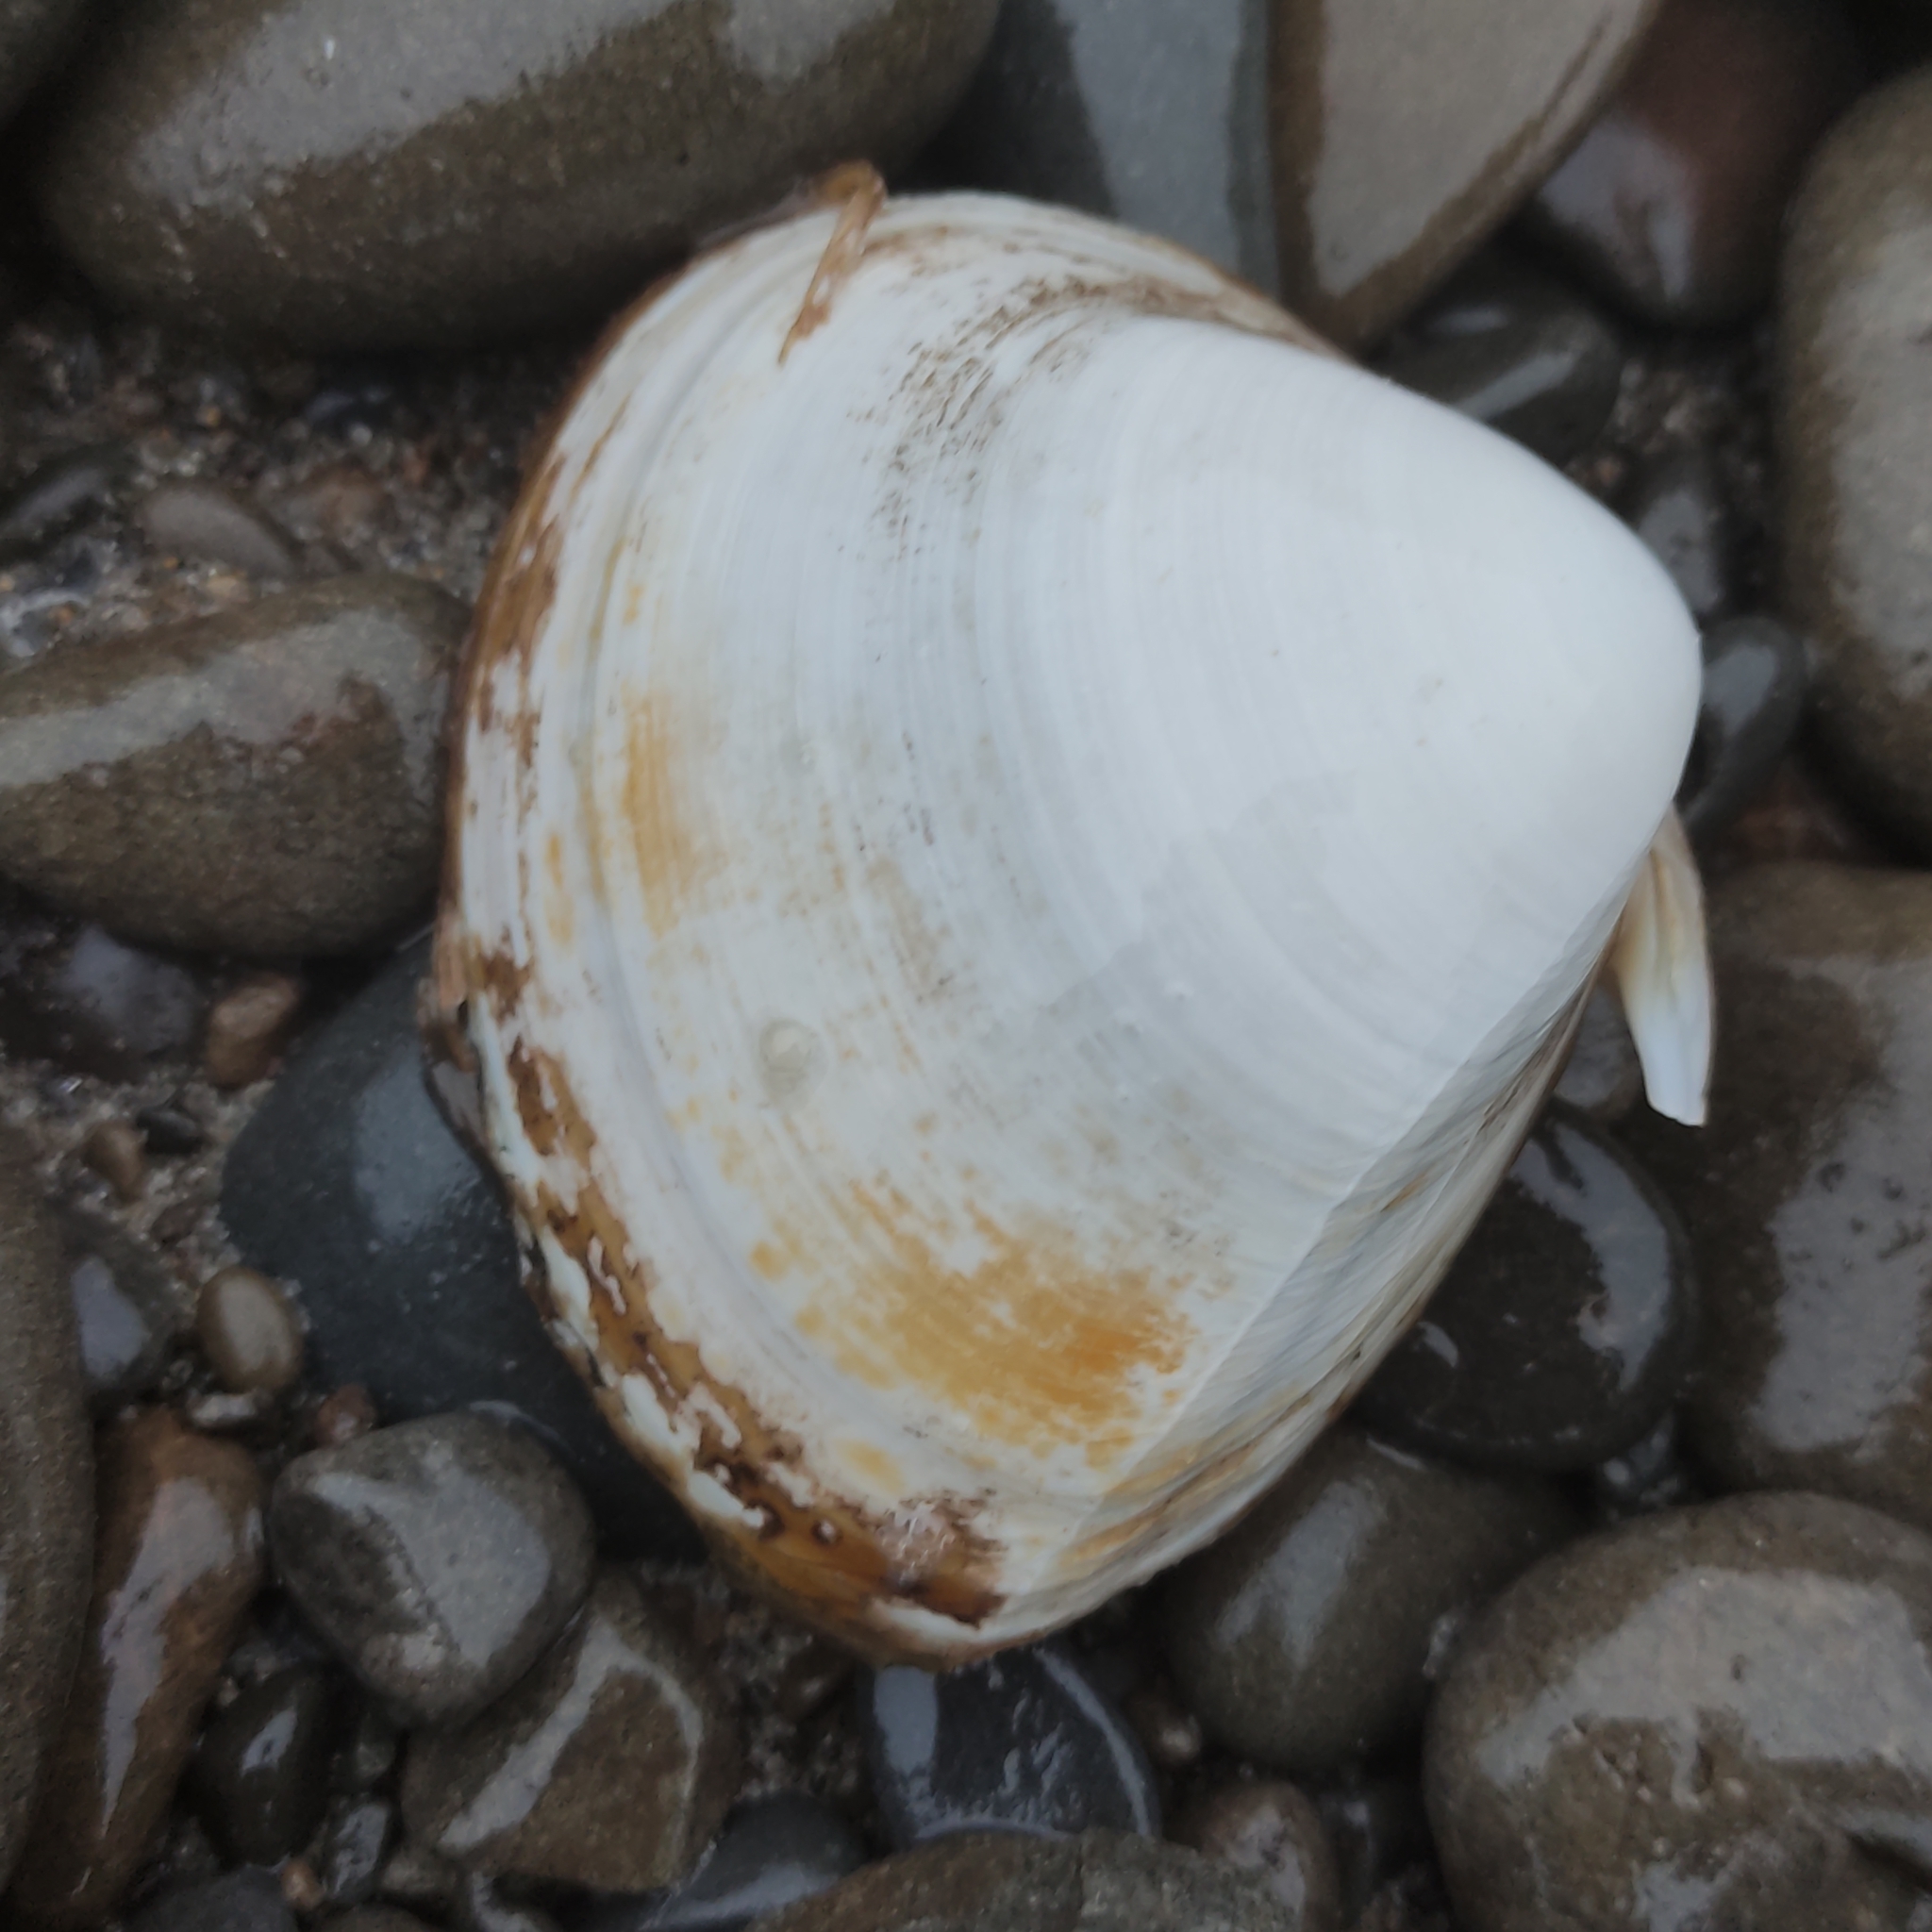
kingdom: Animalia
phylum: Mollusca
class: Bivalvia
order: Venerida
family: Mactridae
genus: Spisula
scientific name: Spisula murchisoni
